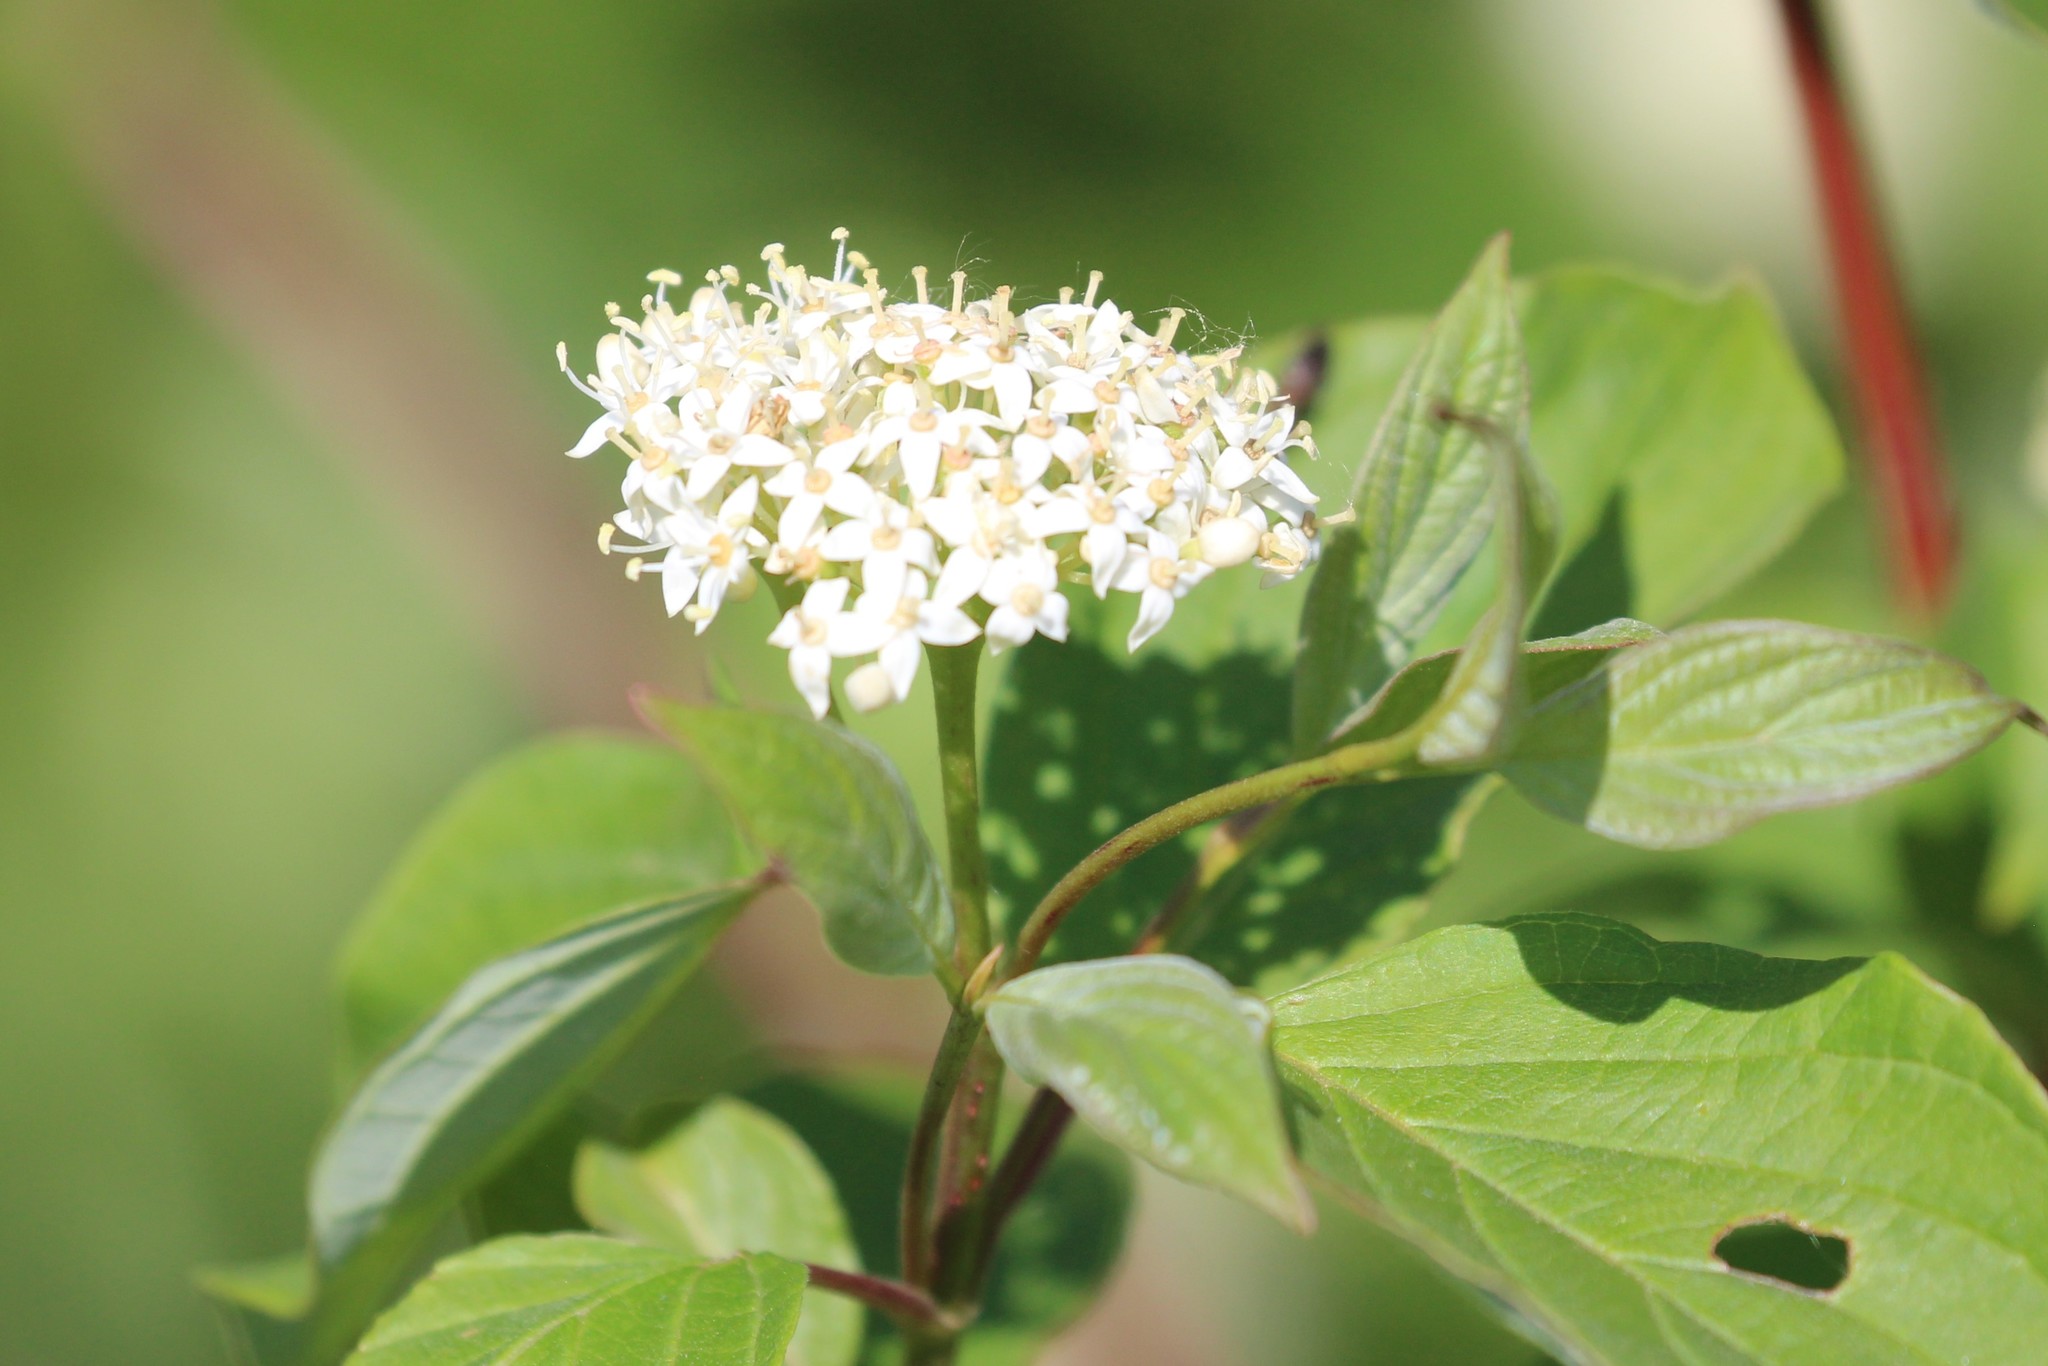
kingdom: Plantae
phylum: Tracheophyta
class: Magnoliopsida
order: Cornales
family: Cornaceae
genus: Cornus
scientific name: Cornus sericea
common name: Red-osier dogwood
